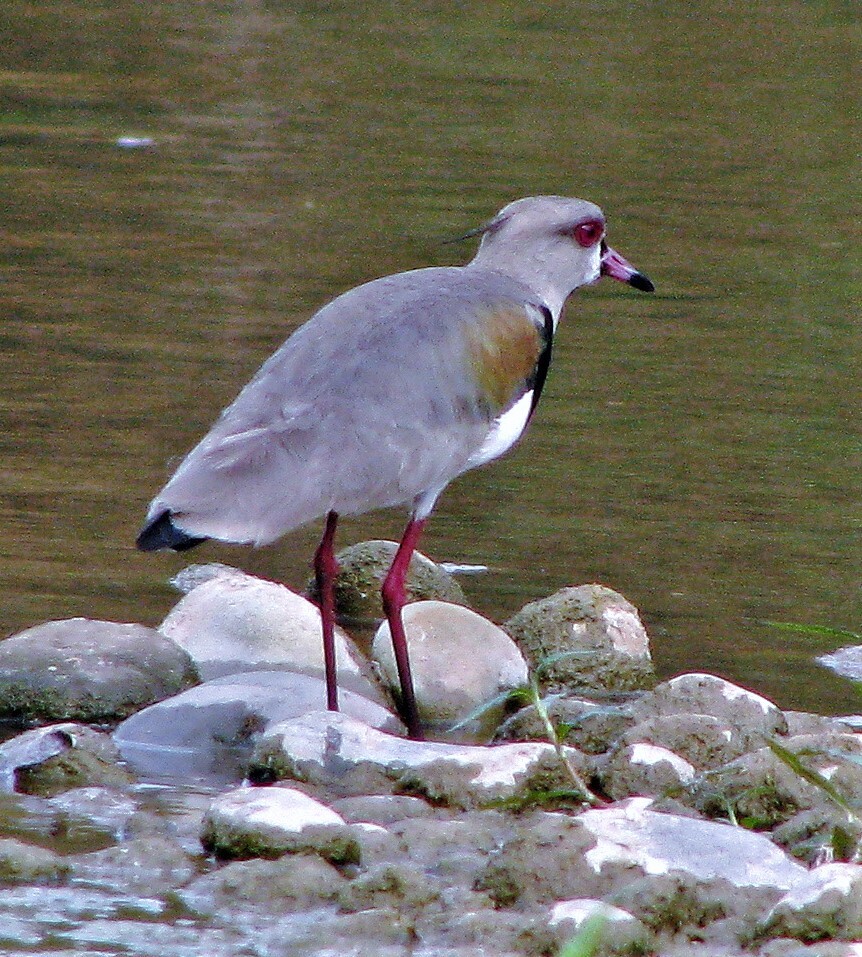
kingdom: Animalia
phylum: Chordata
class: Aves
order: Charadriiformes
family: Charadriidae
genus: Vanellus
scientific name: Vanellus chilensis
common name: Southern lapwing
